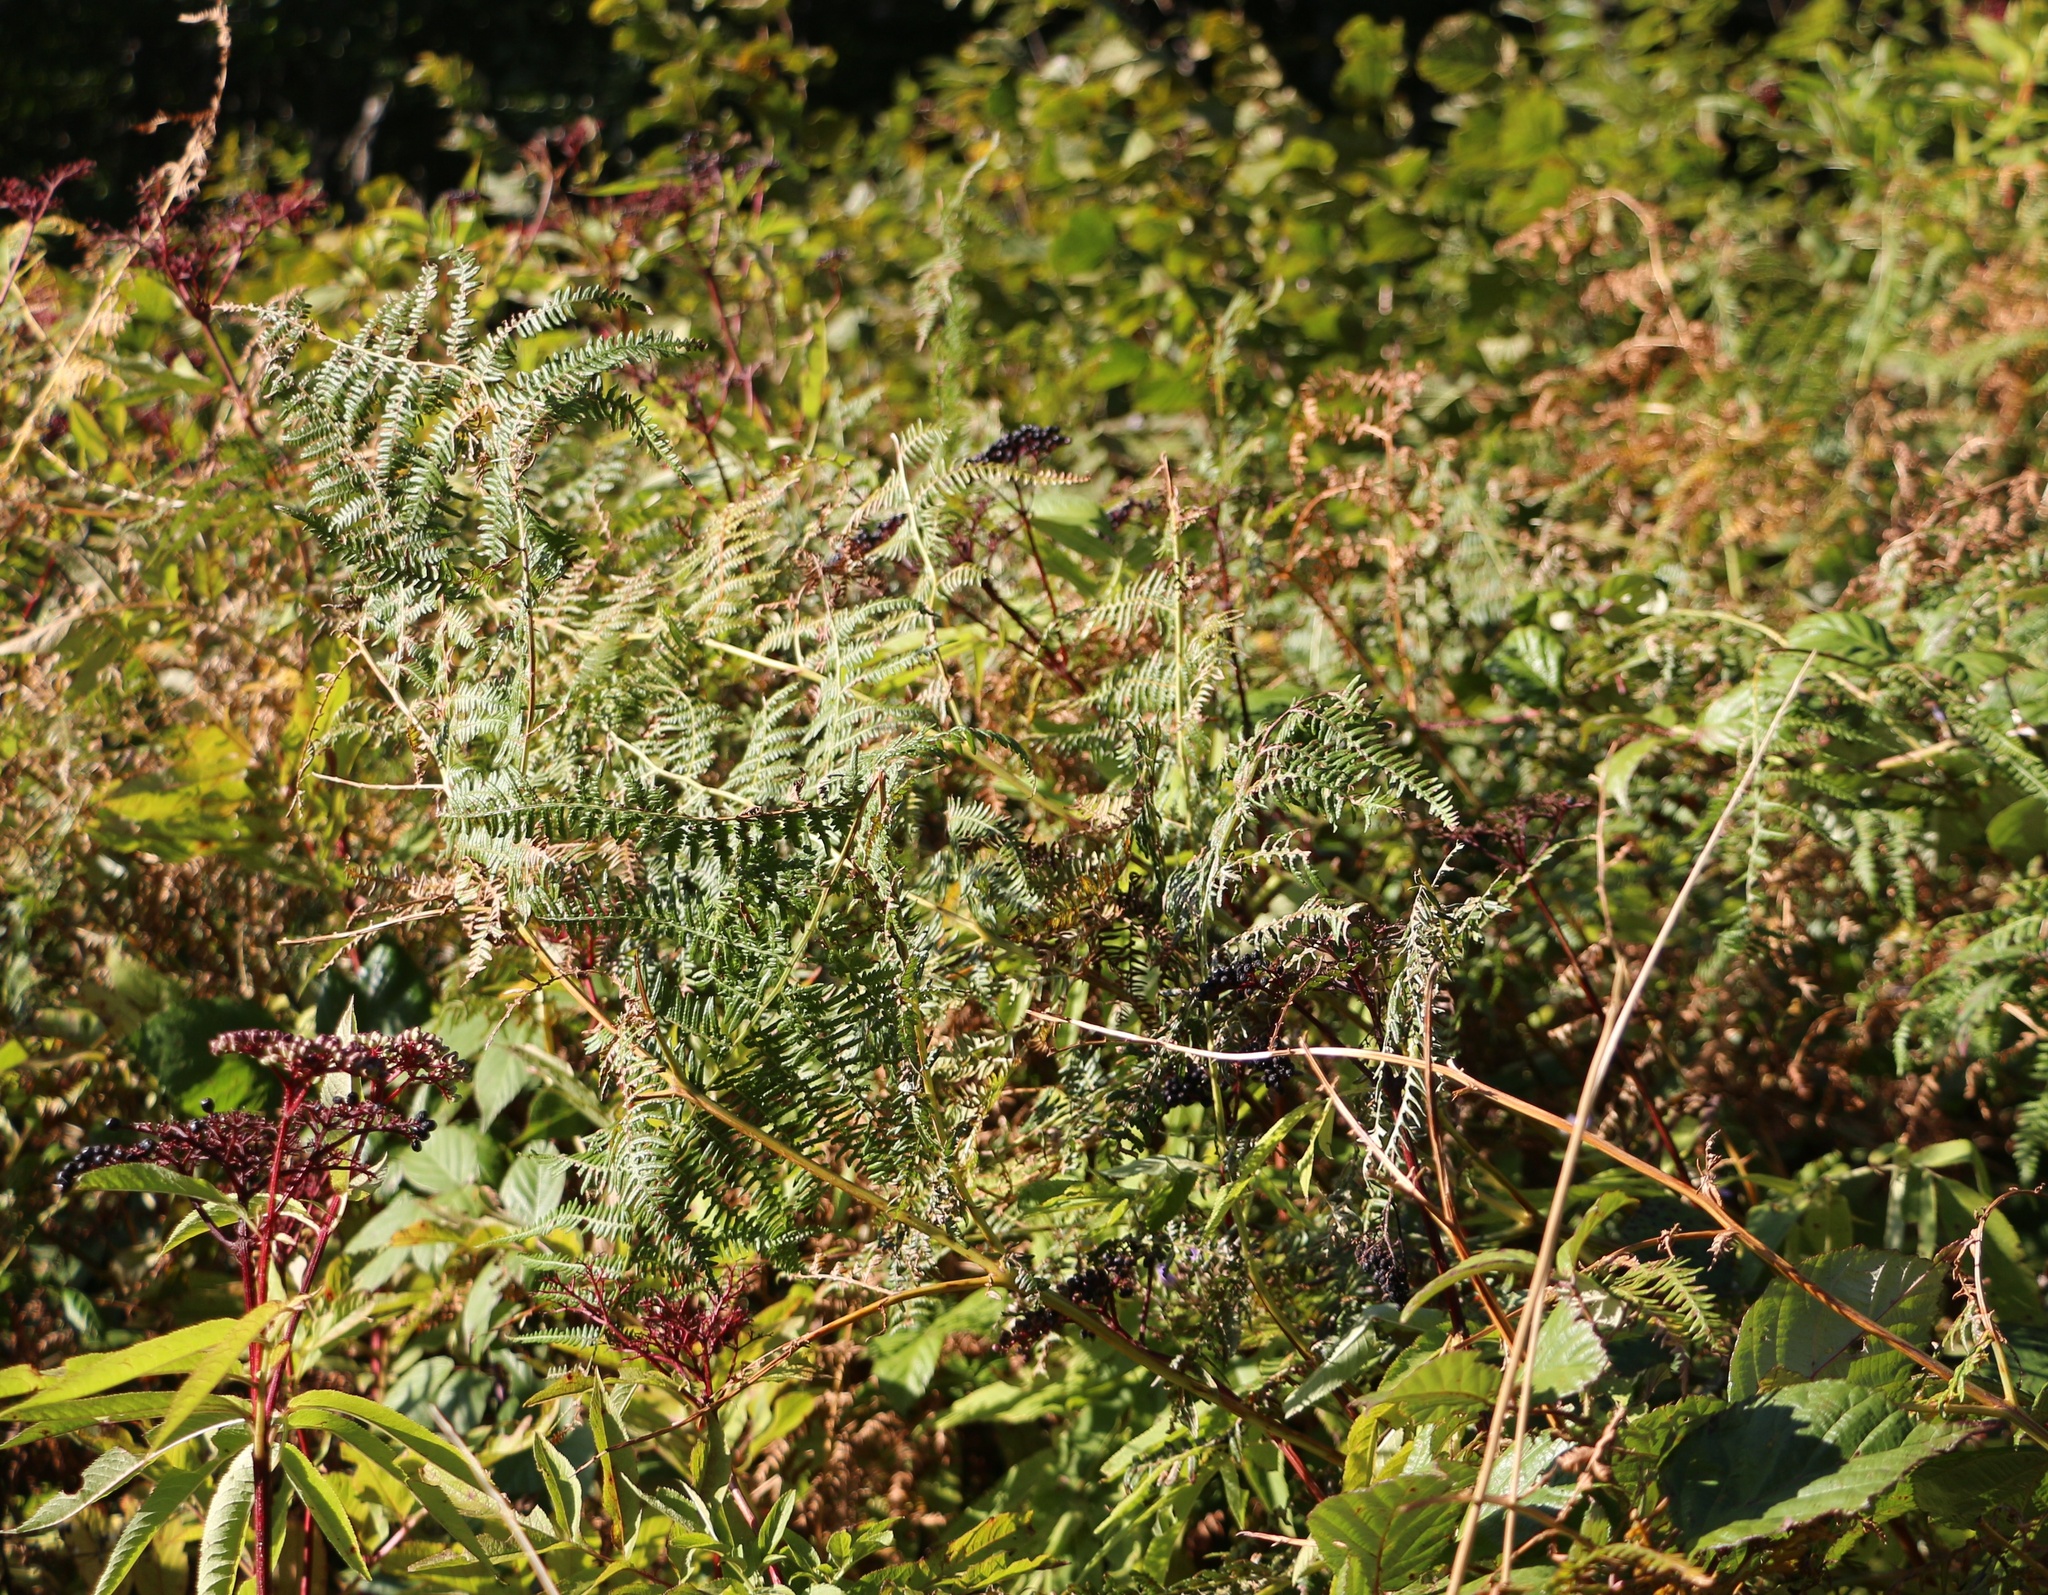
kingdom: Plantae
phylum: Tracheophyta
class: Polypodiopsida
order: Polypodiales
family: Dennstaedtiaceae
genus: Pteridium
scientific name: Pteridium tauricum
